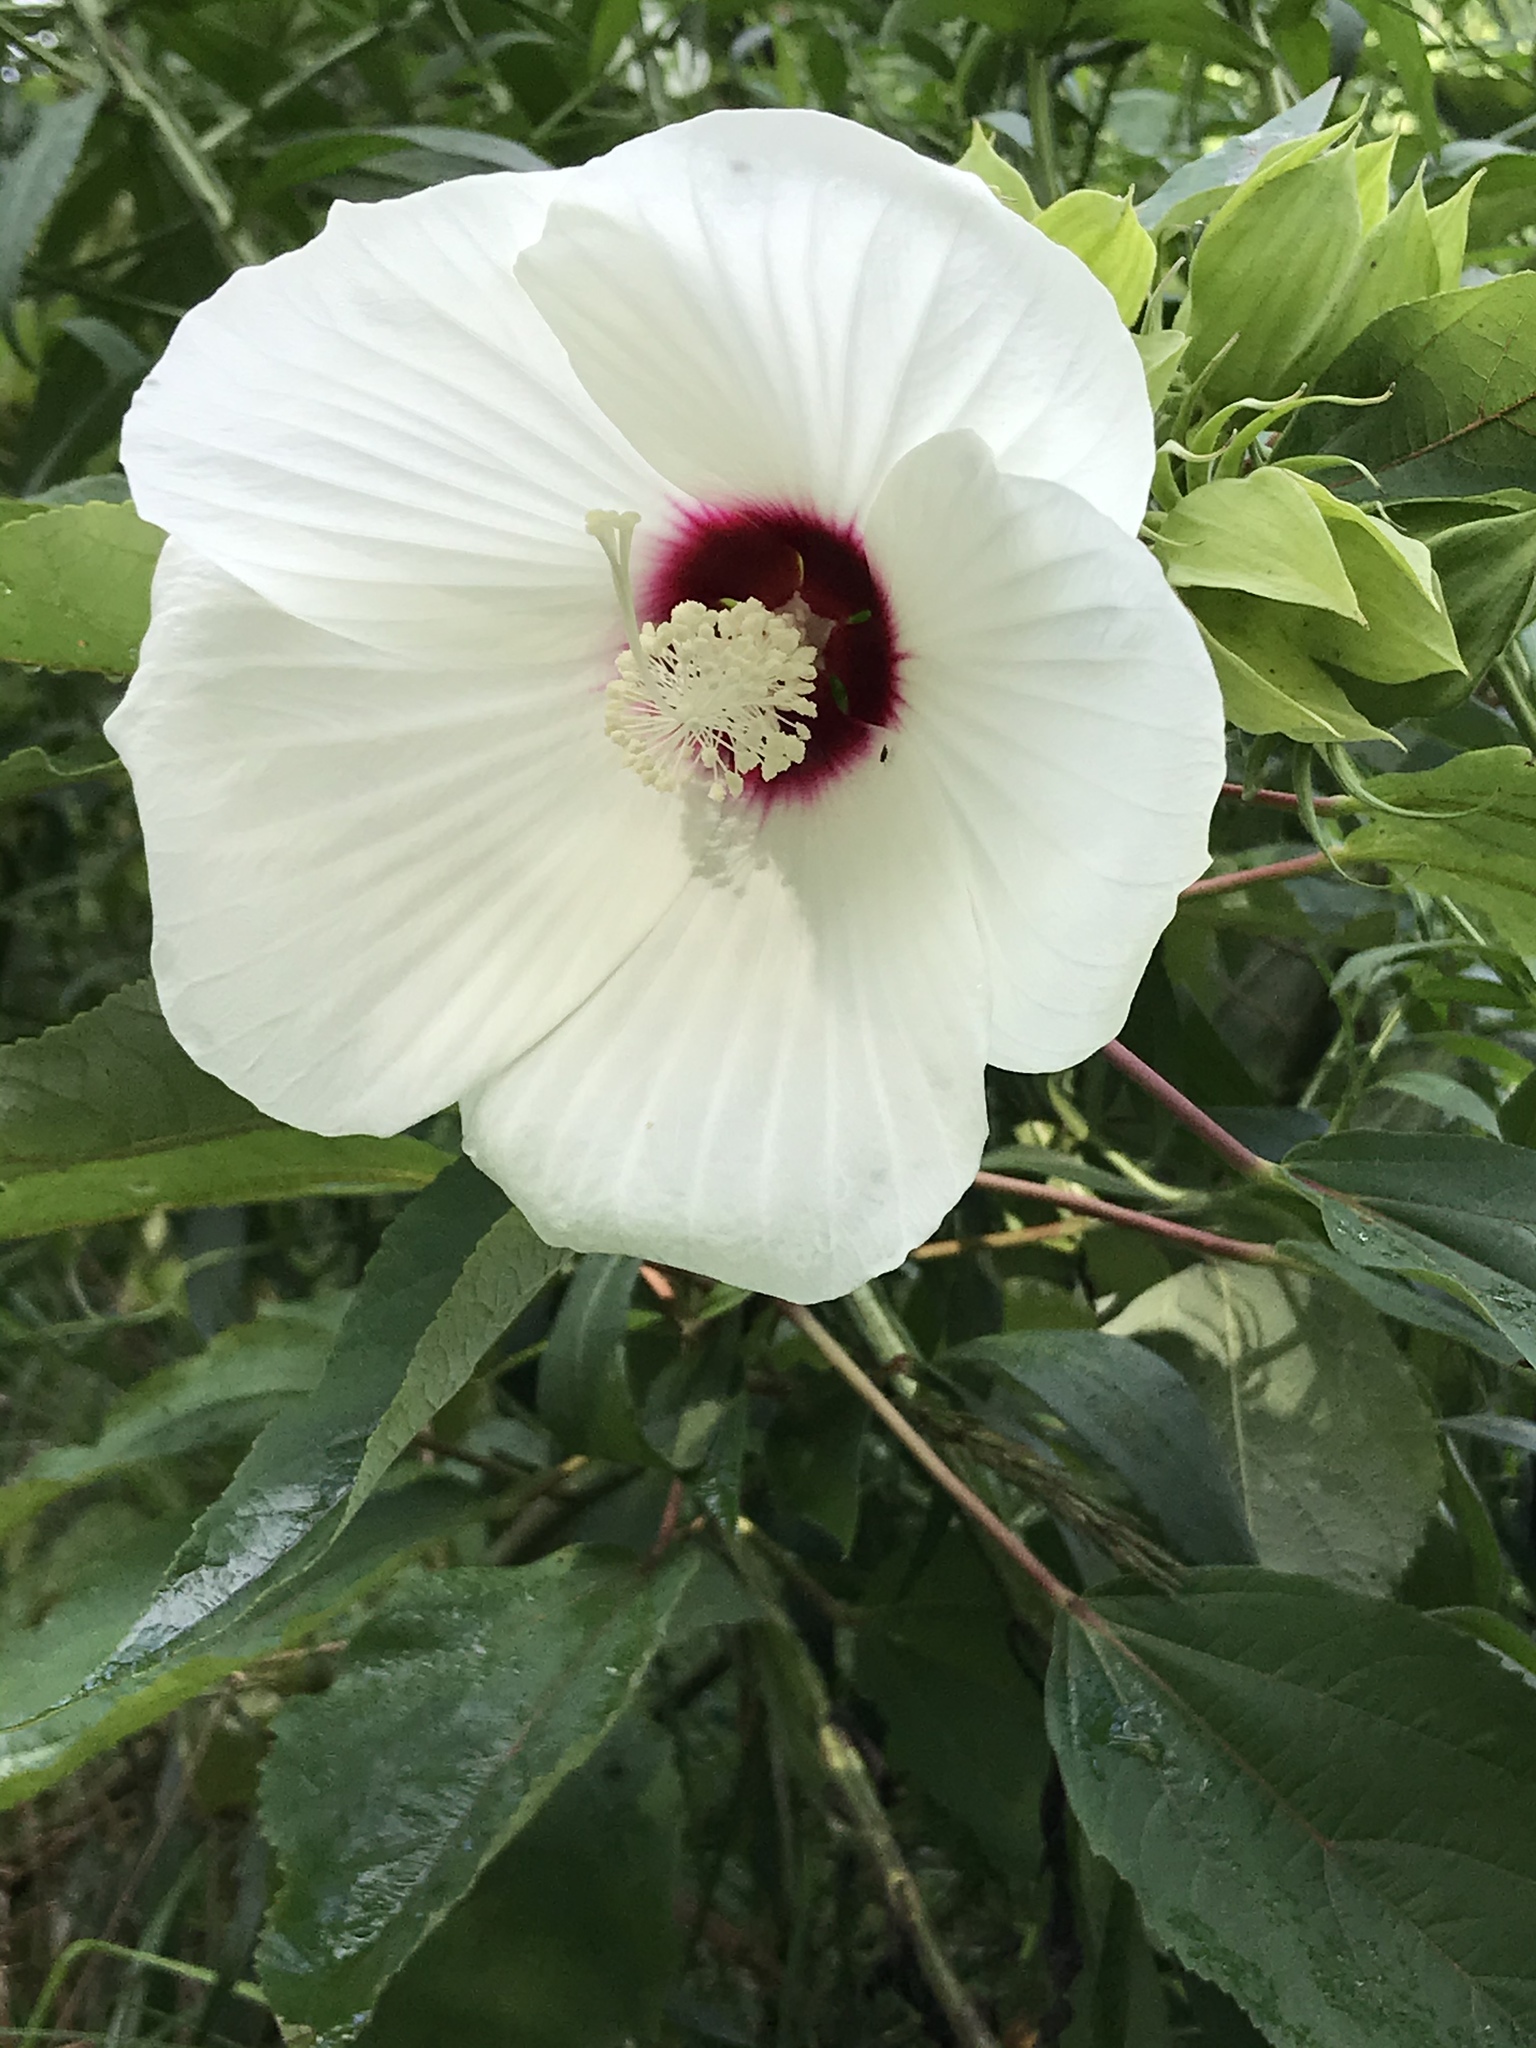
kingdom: Plantae
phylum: Tracheophyta
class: Magnoliopsida
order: Malvales
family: Malvaceae
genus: Hibiscus
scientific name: Hibiscus moscheutos
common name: Common rose-mallow
